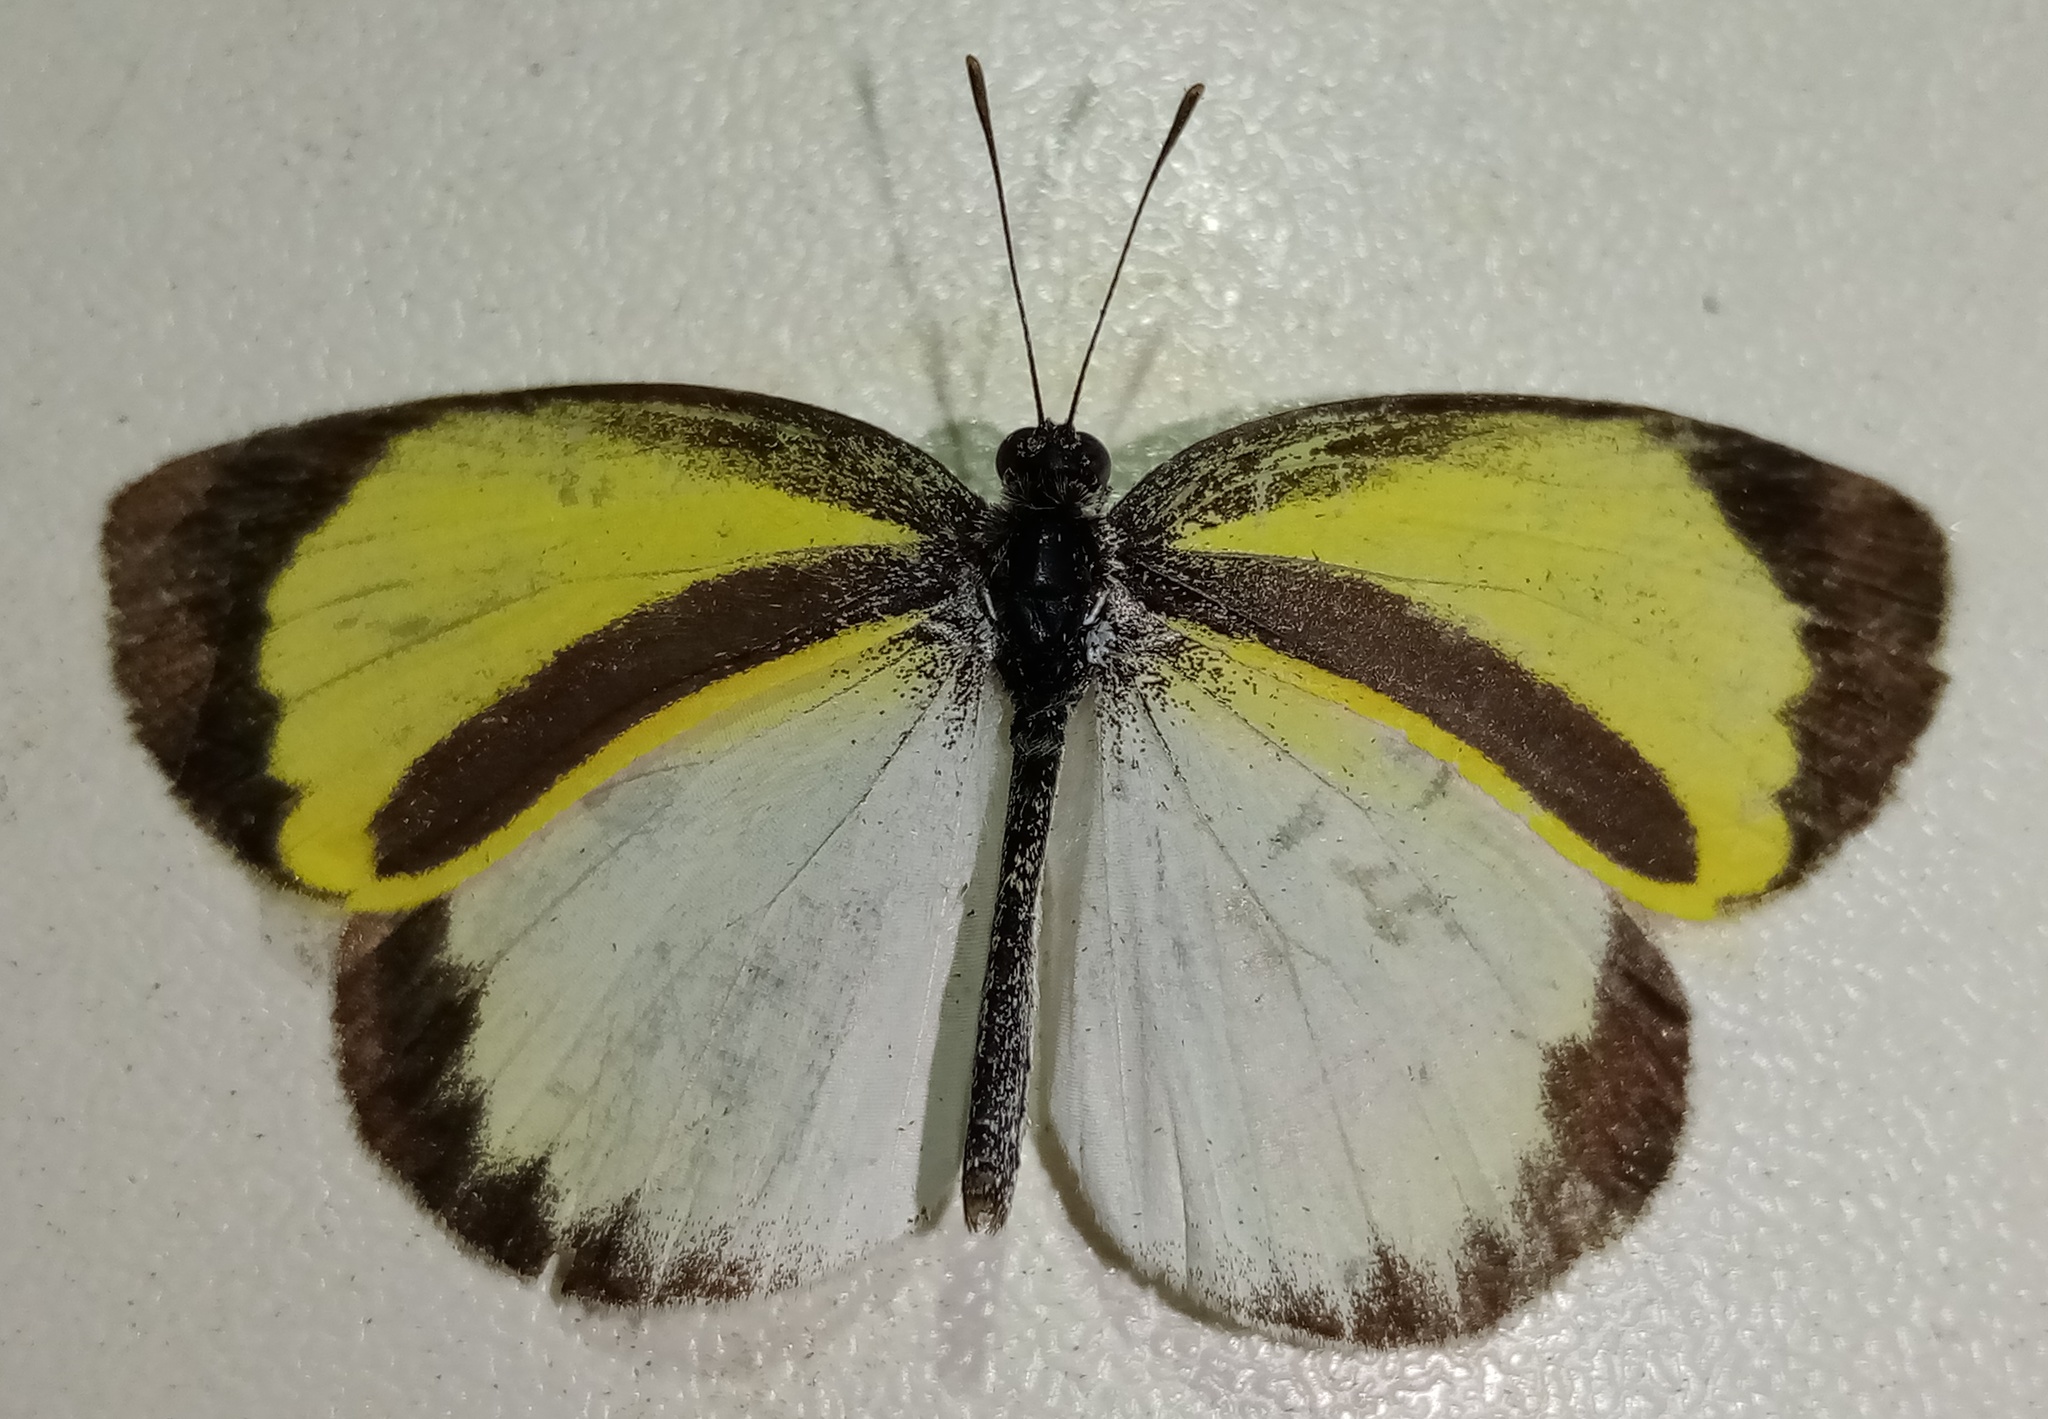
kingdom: Animalia
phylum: Arthropoda
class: Insecta
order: Lepidoptera
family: Pieridae
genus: Eurema
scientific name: Eurema daira
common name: Barred sulphur
